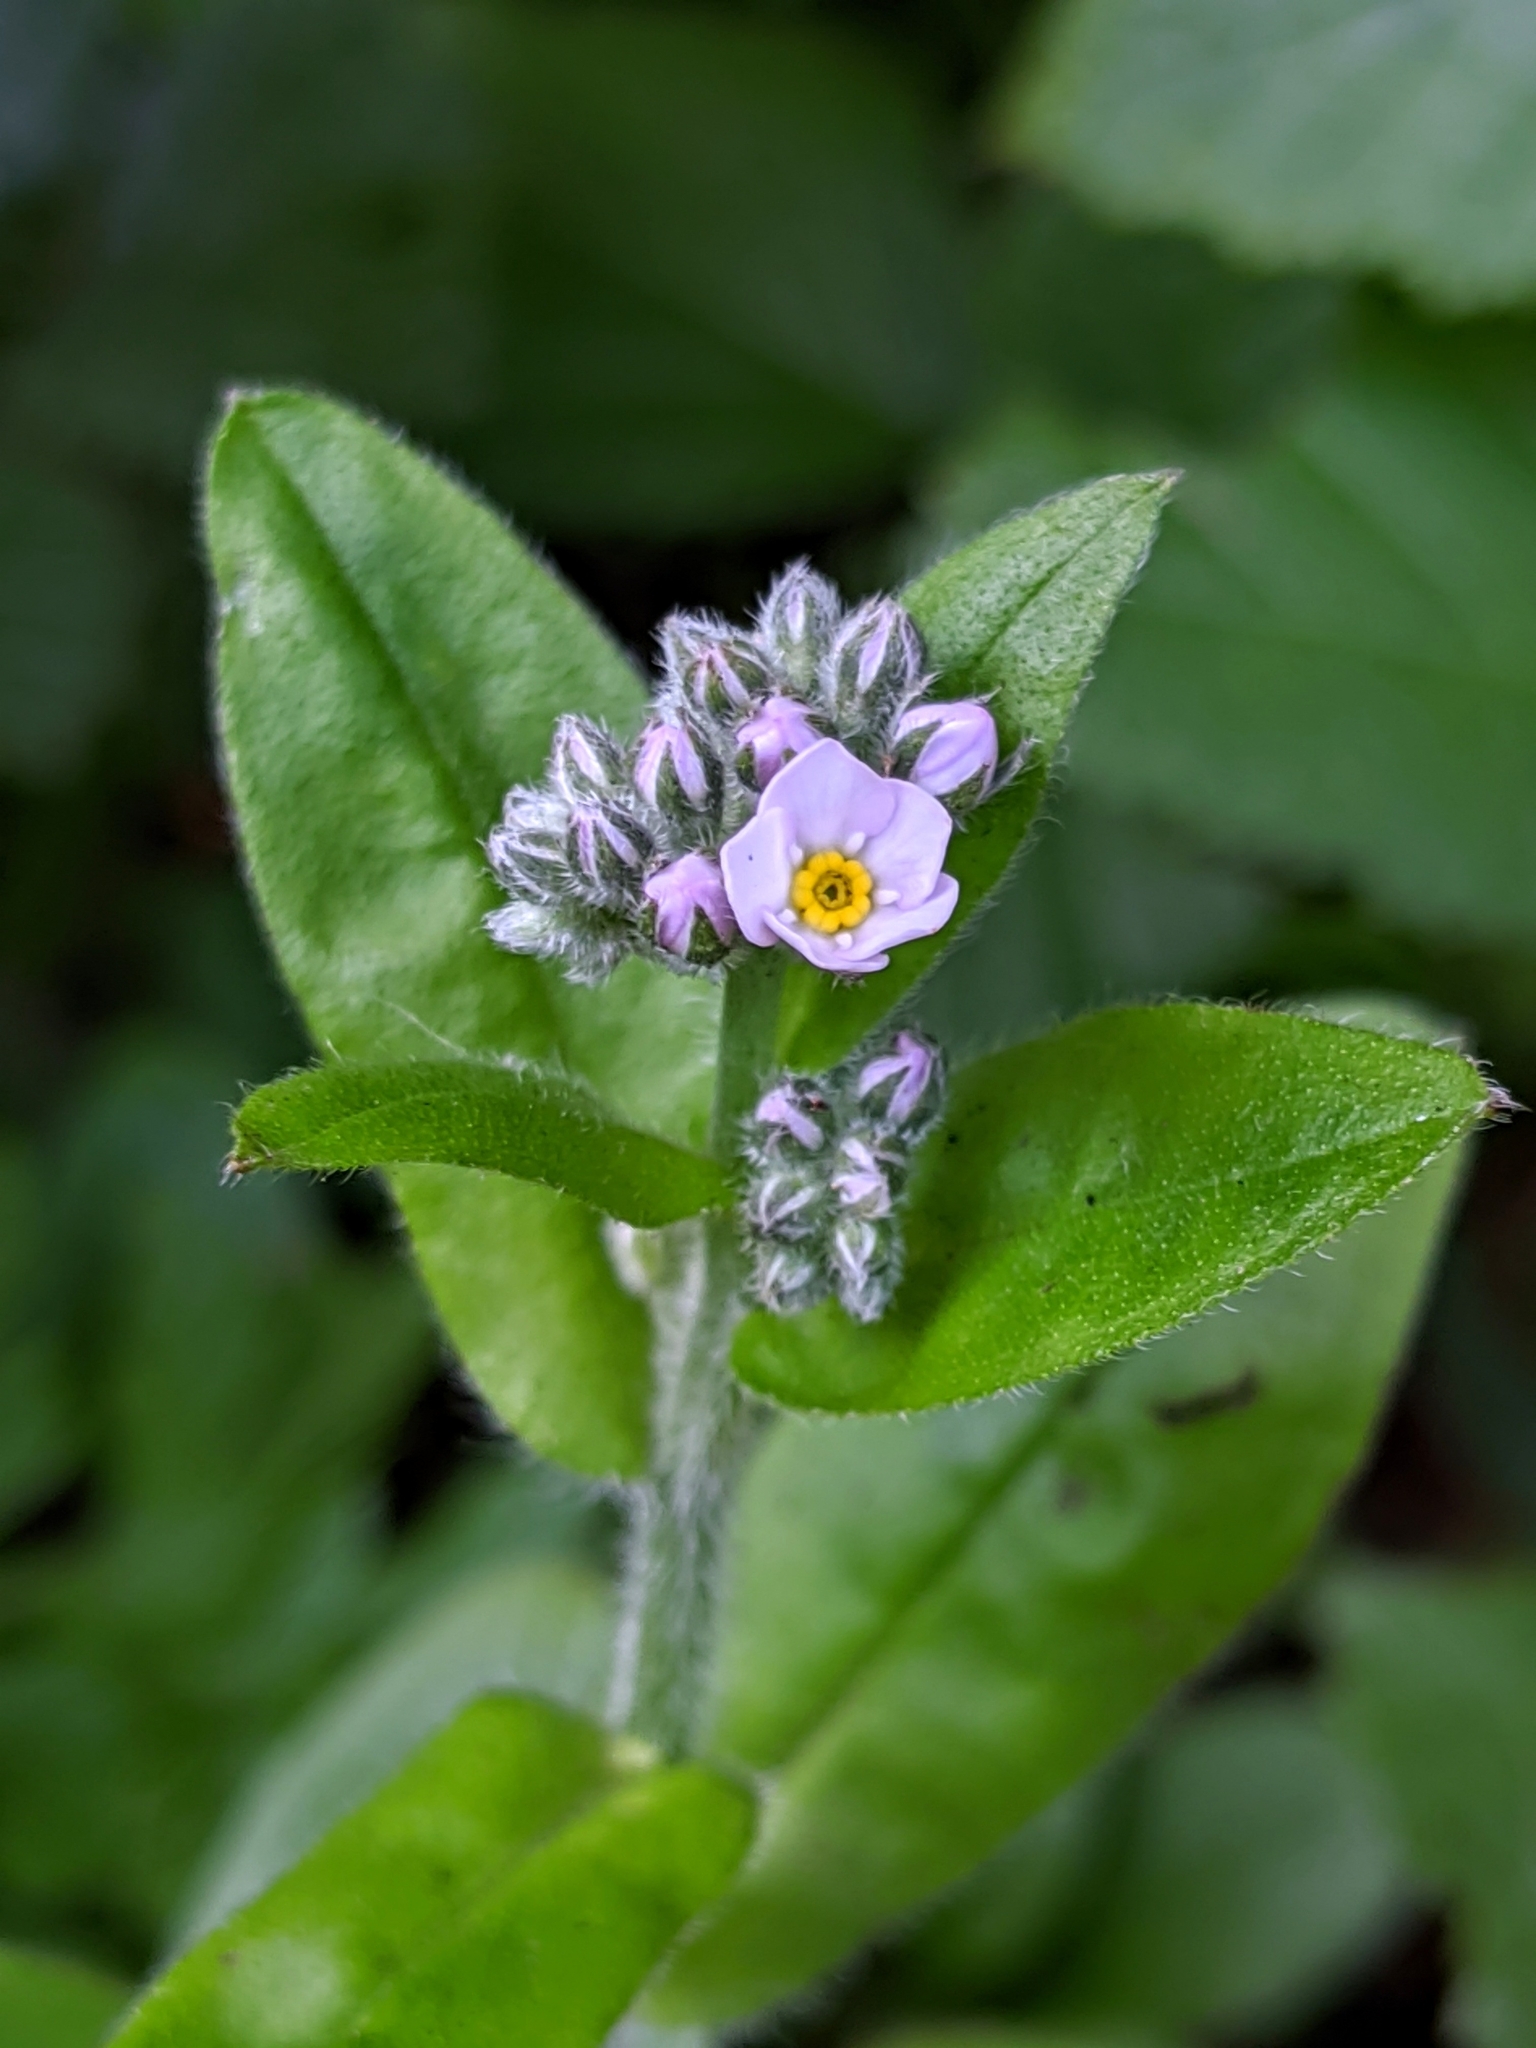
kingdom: Plantae
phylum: Tracheophyta
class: Magnoliopsida
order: Boraginales
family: Boraginaceae
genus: Myosotis
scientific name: Myosotis latifolia
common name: Broadleaf forget-me-not
